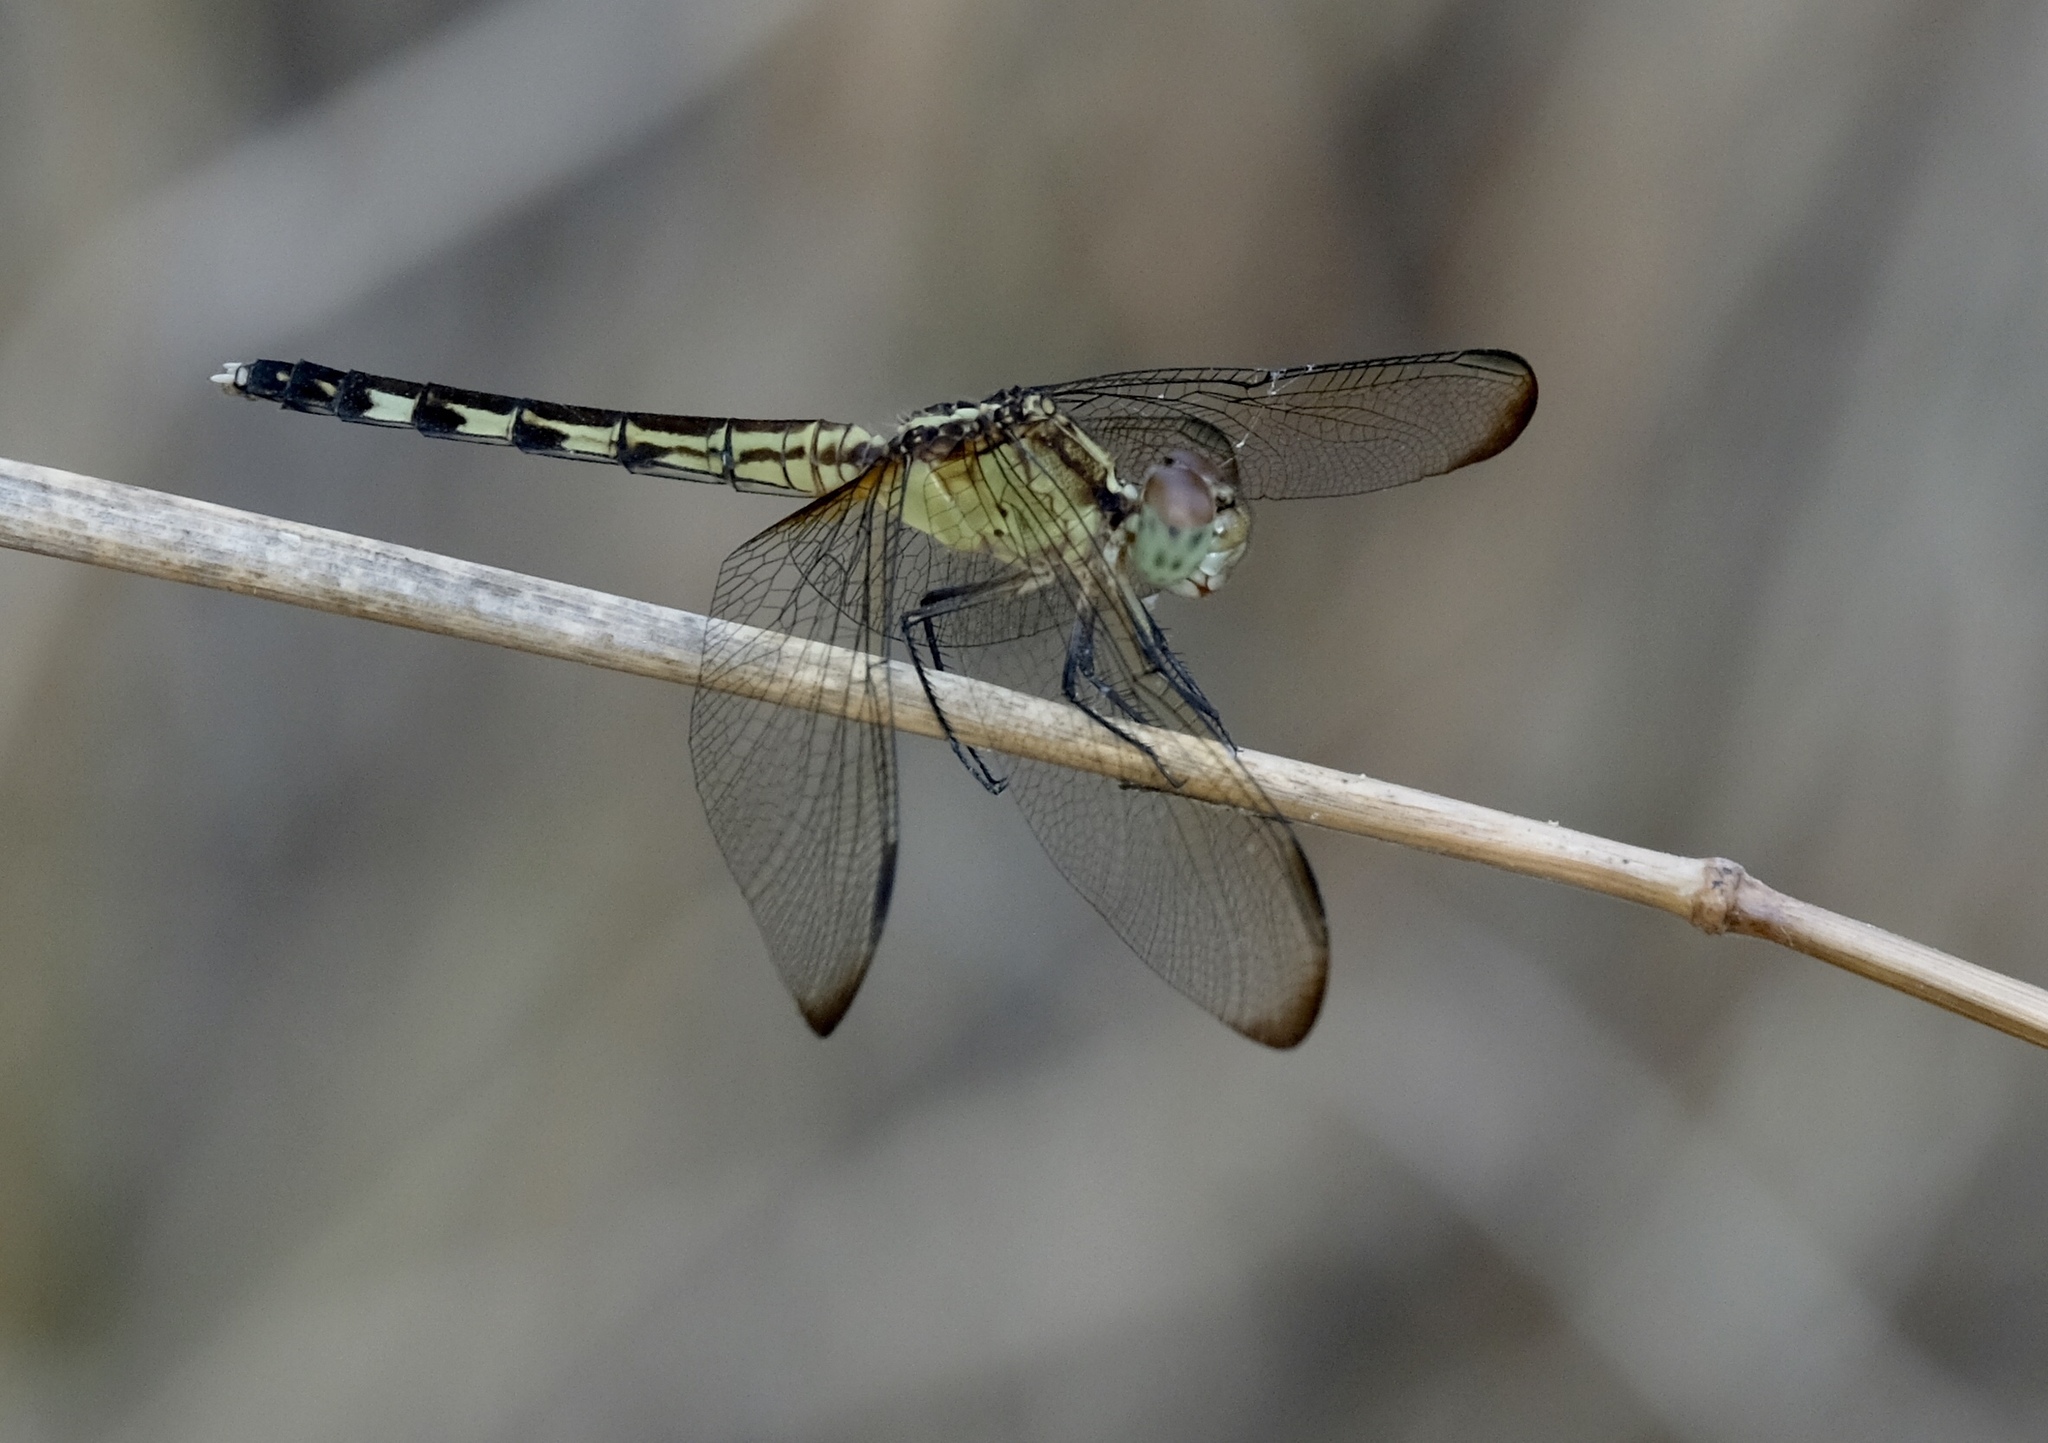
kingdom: Animalia
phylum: Arthropoda
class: Insecta
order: Odonata
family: Libellulidae
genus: Erythrodiplax
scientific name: Erythrodiplax umbrata
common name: Band-winged dragonlet
